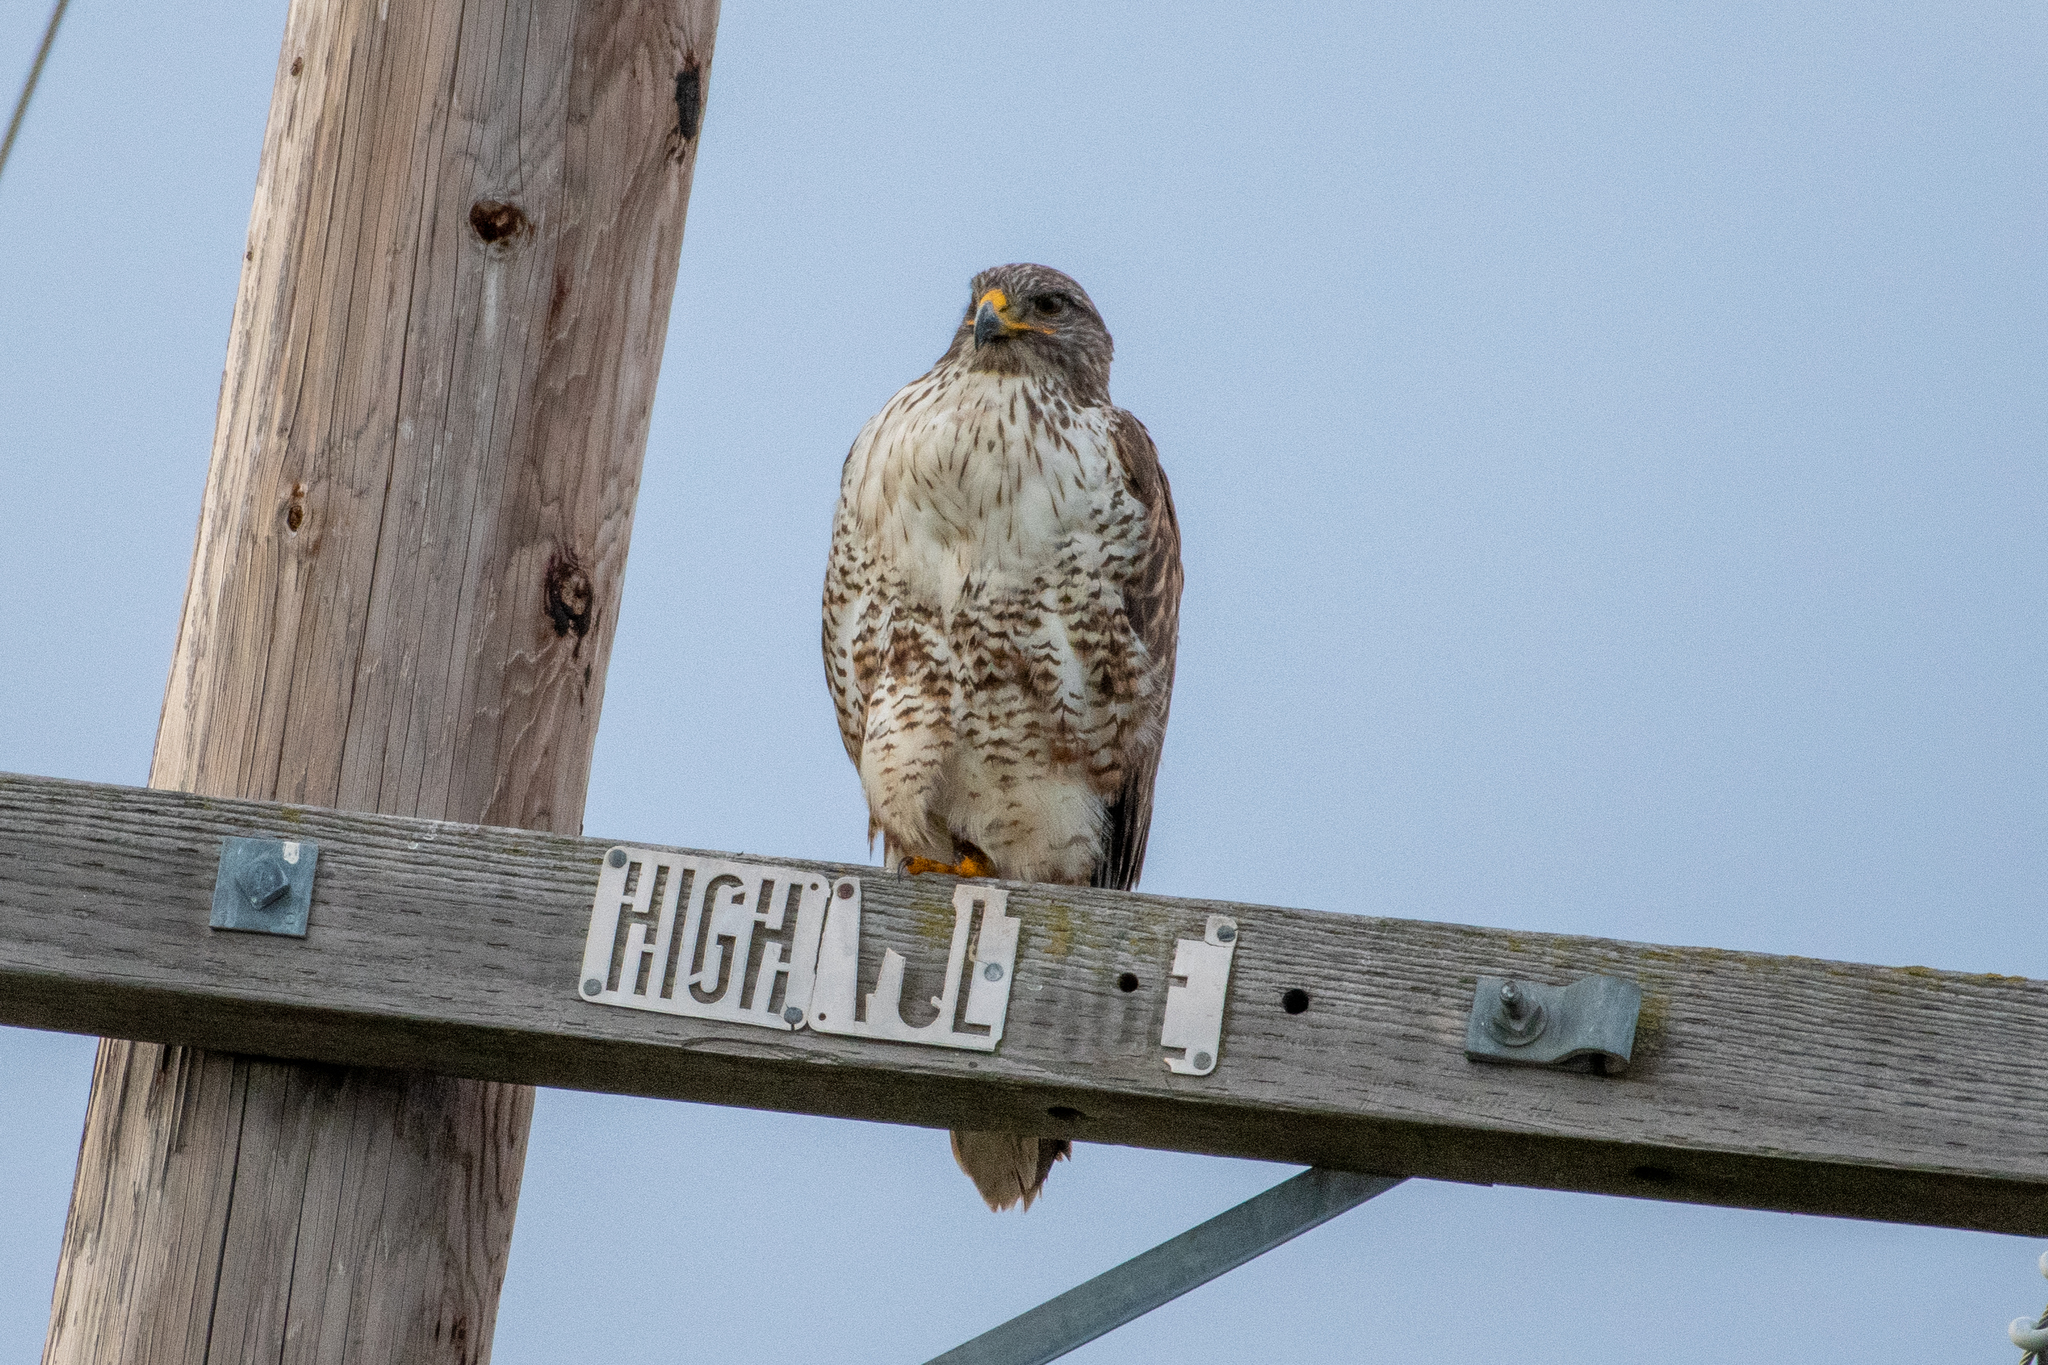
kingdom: Animalia
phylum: Chordata
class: Aves
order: Accipitriformes
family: Accipitridae
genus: Buteo
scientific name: Buteo regalis
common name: Ferruginous hawk
